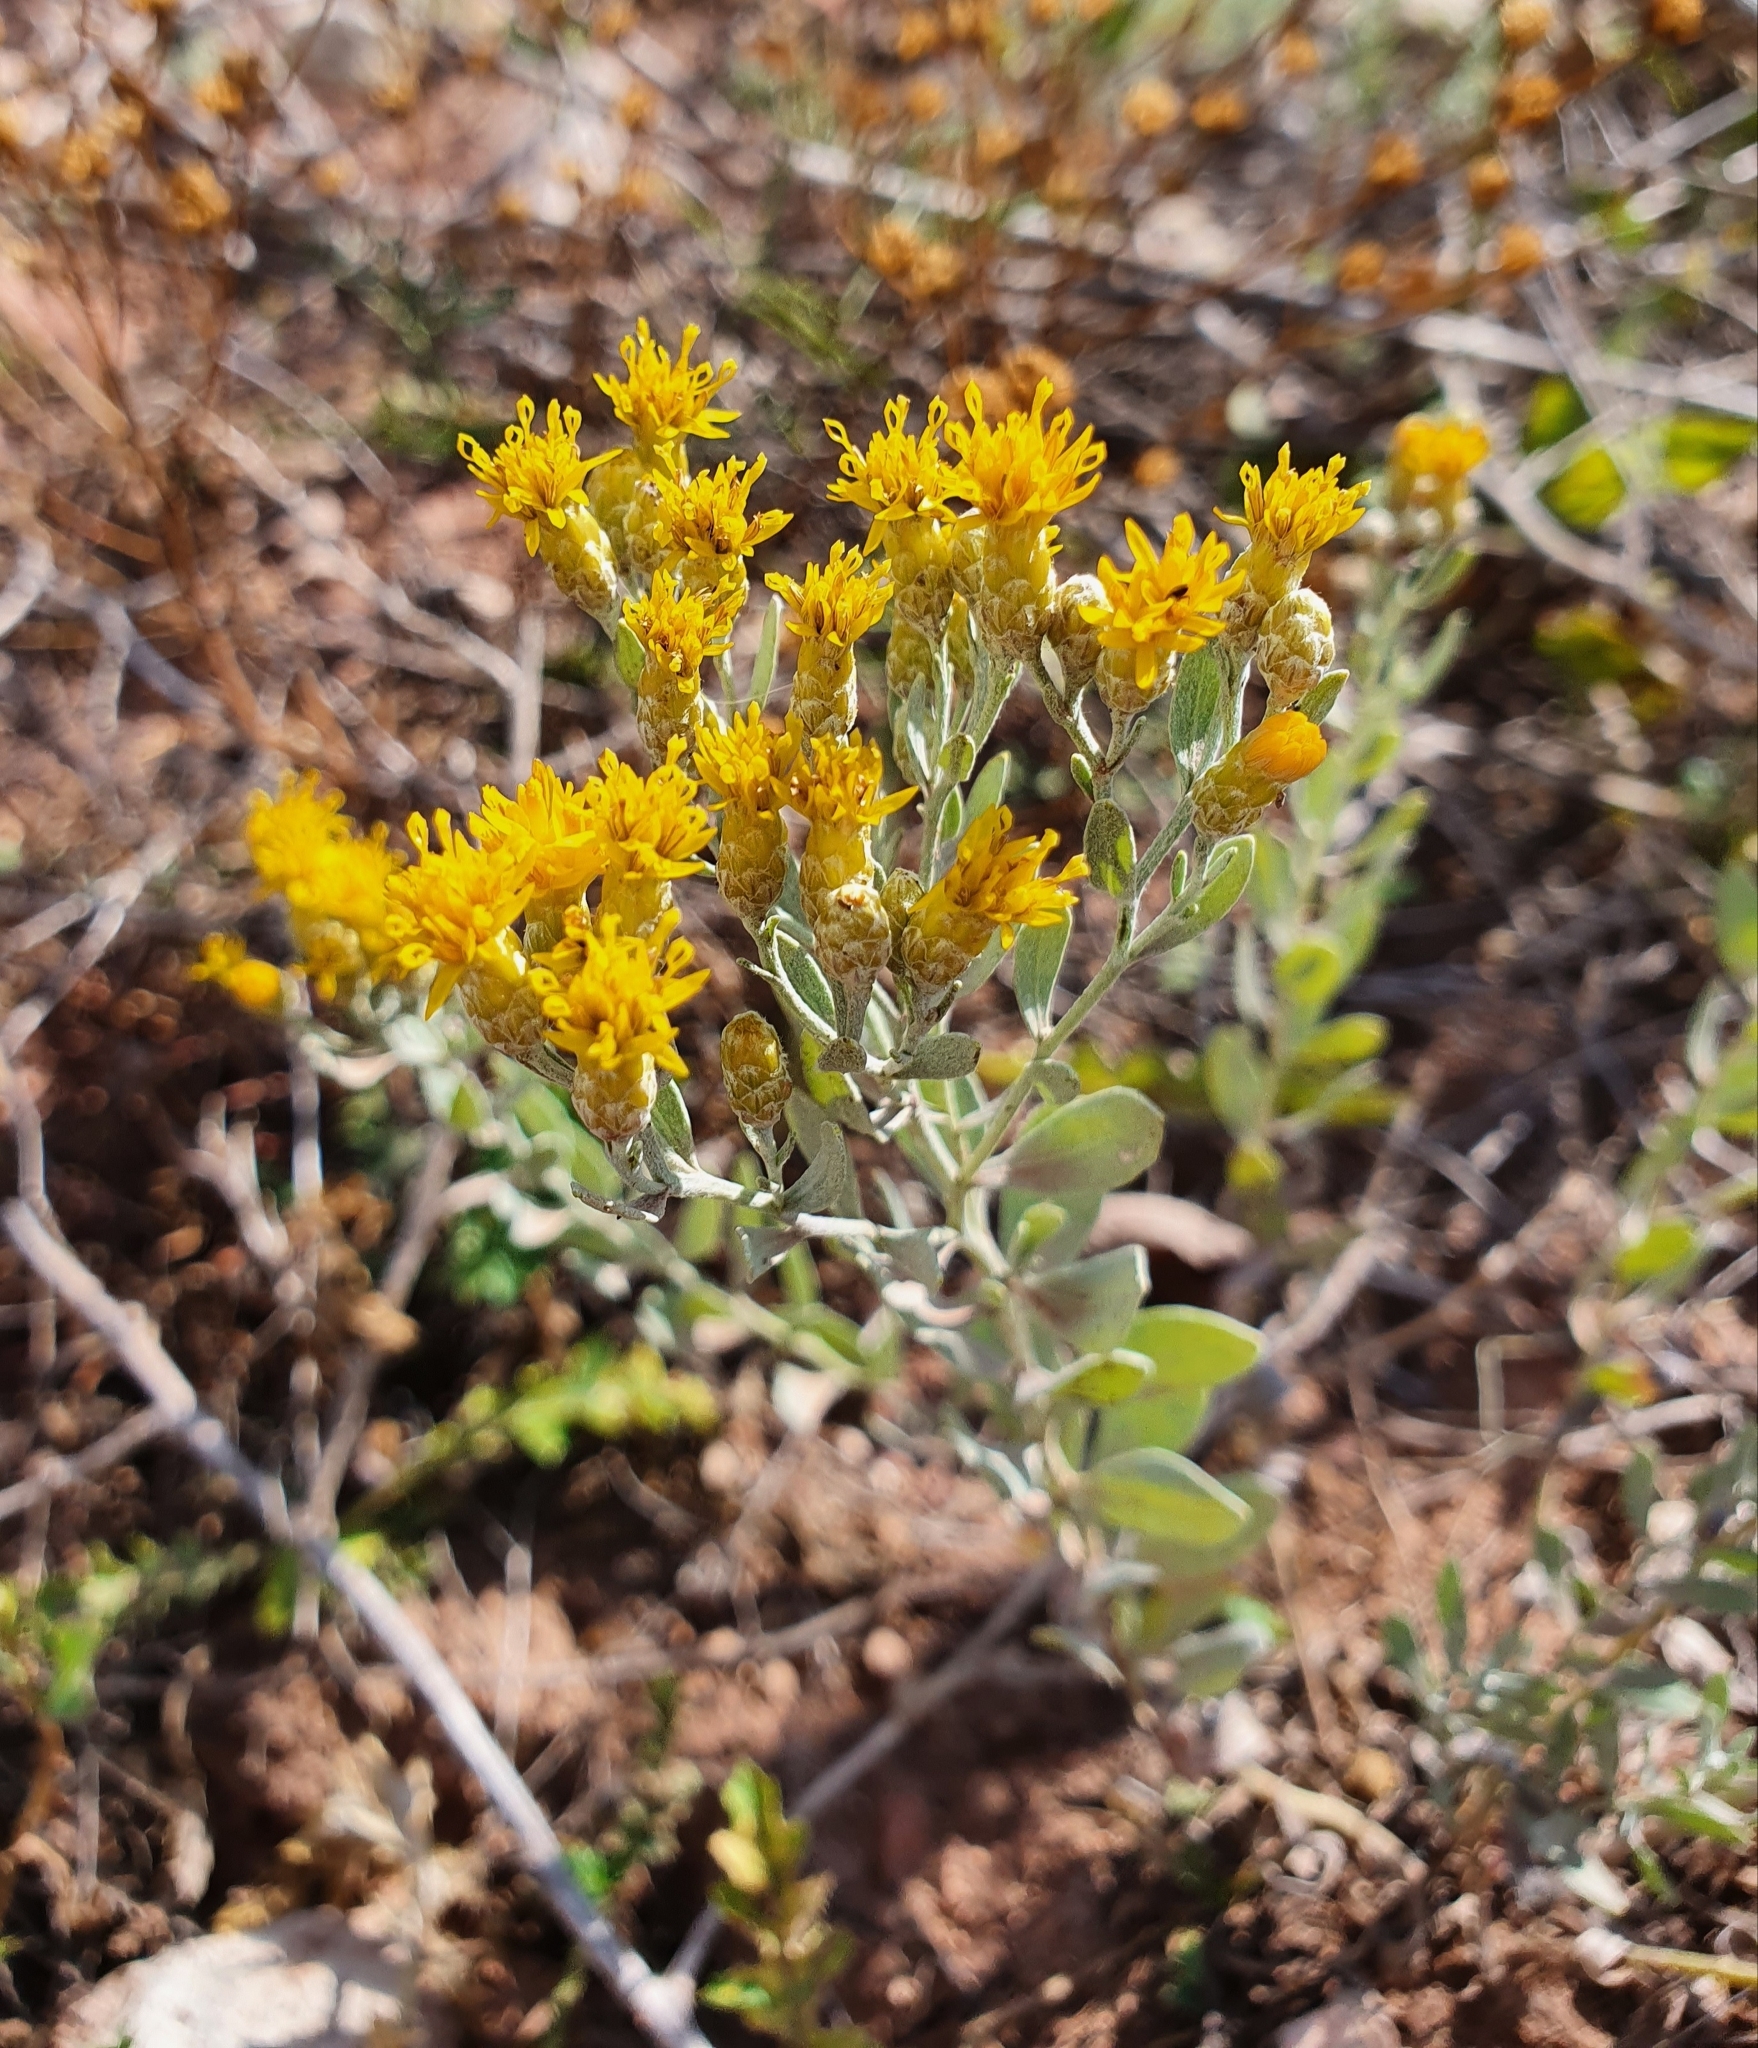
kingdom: Plantae
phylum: Tracheophyta
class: Magnoliopsida
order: Asterales
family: Asteraceae
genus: Galatella
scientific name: Galatella villosa
